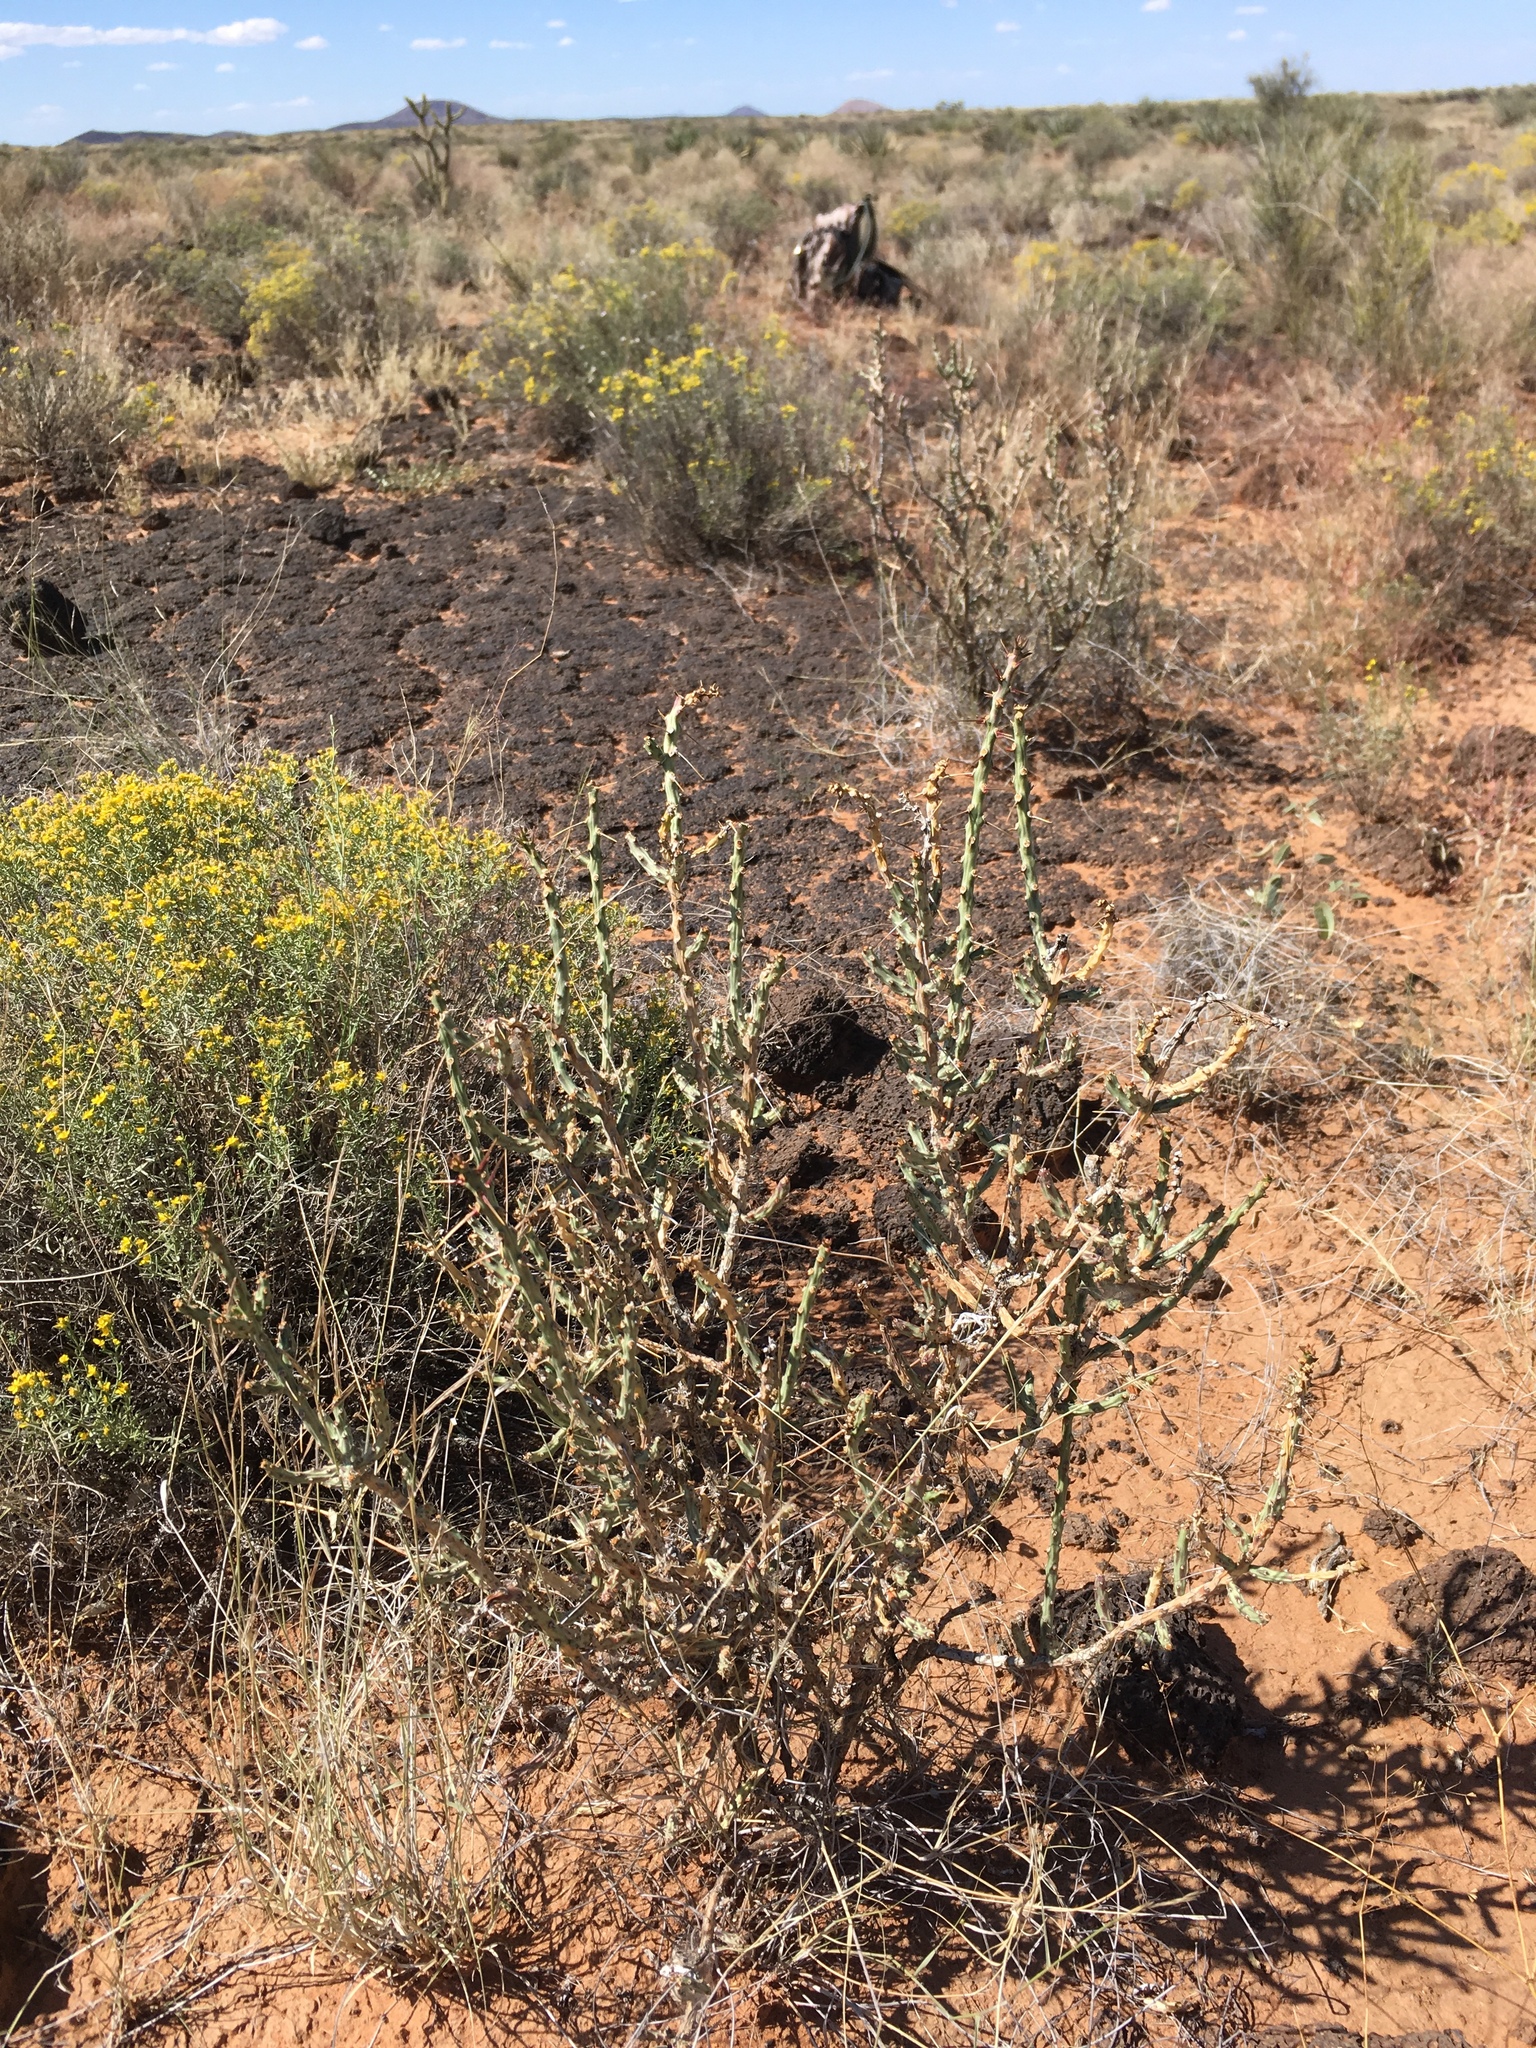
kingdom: Plantae
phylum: Tracheophyta
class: Magnoliopsida
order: Caryophyllales
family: Cactaceae
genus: Cylindropuntia
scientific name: Cylindropuntia leptocaulis
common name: Christmas cactus
